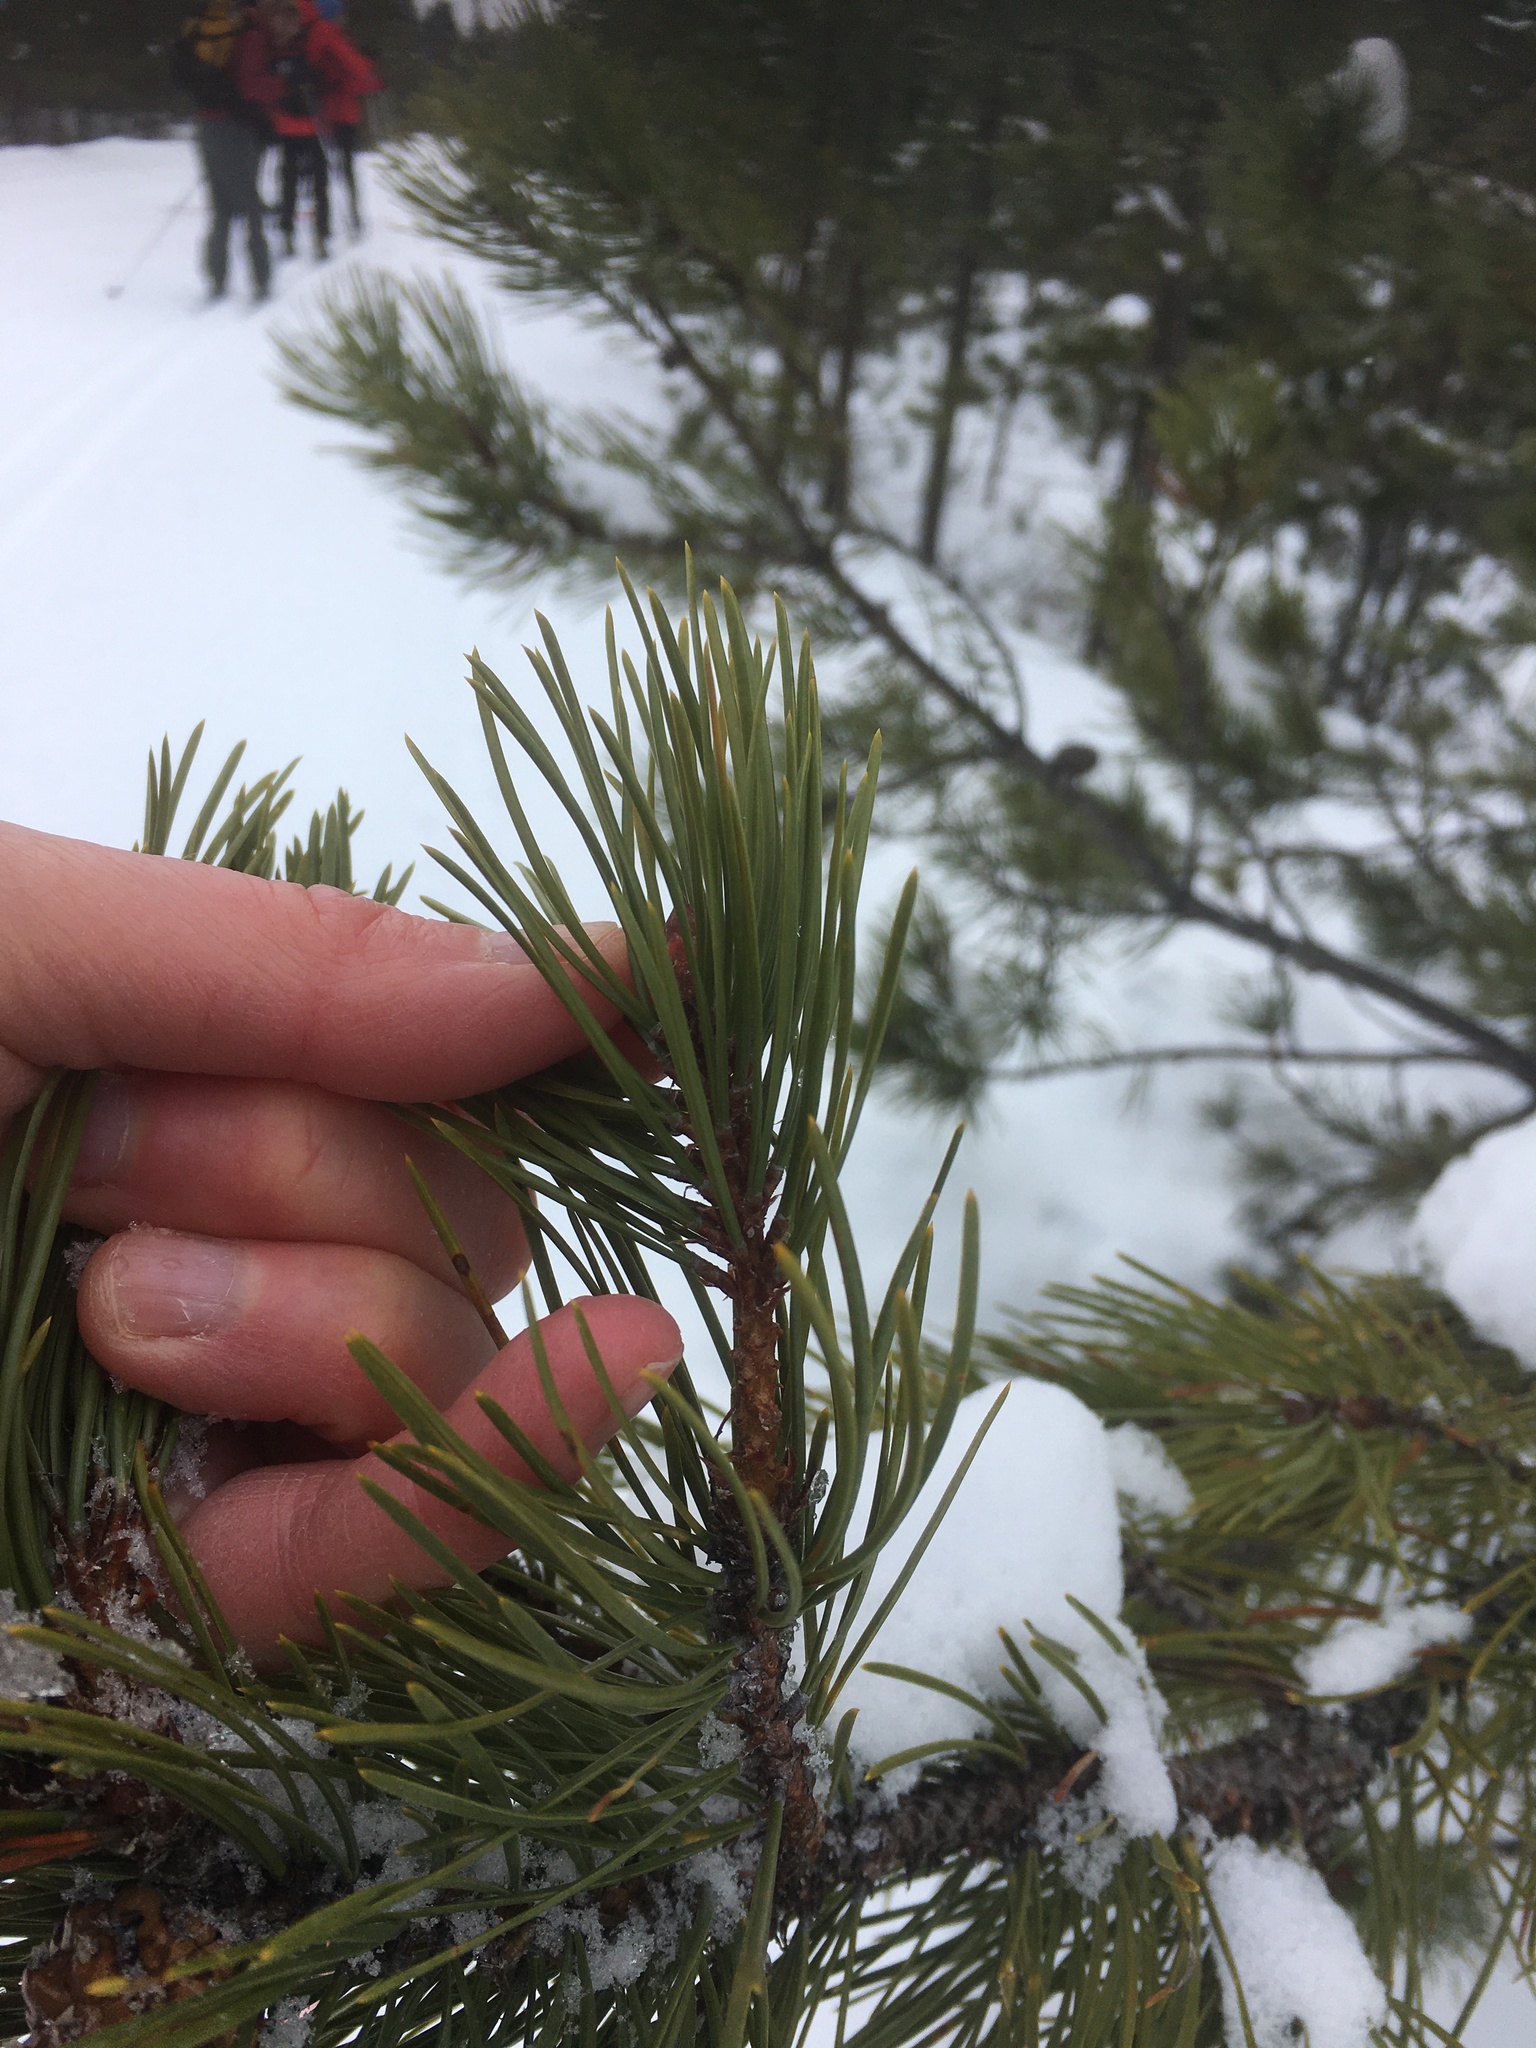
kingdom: Plantae
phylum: Tracheophyta
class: Pinopsida
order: Pinales
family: Pinaceae
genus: Pinus
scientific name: Pinus contorta
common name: Lodgepole pine
